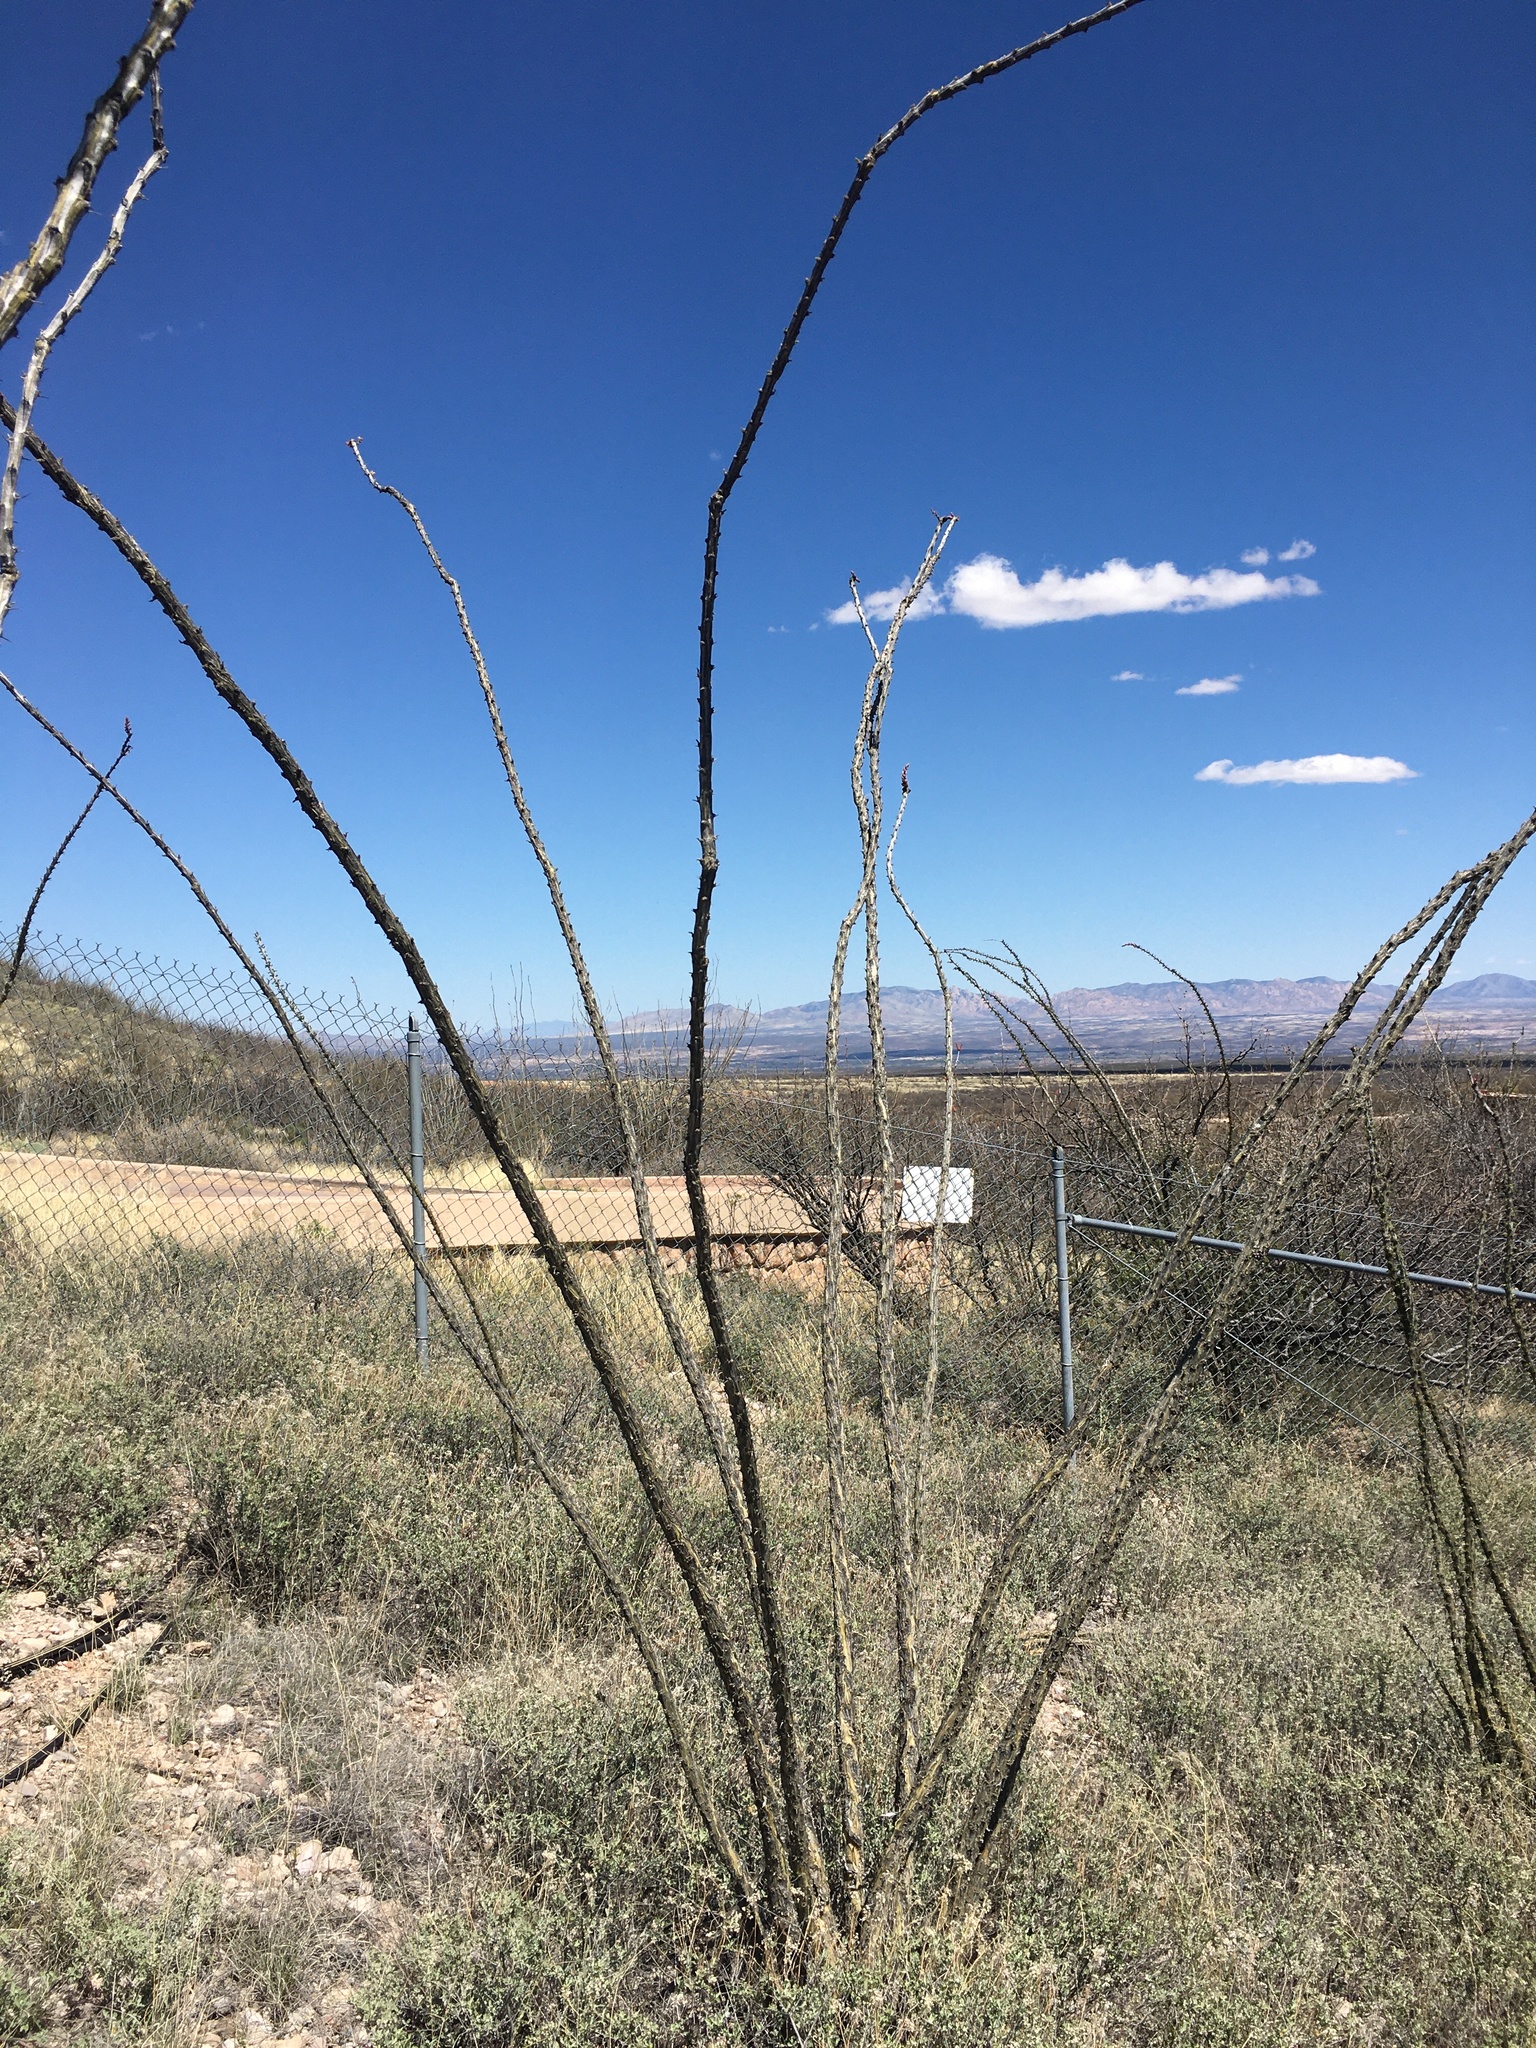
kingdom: Plantae
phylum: Tracheophyta
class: Magnoliopsida
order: Ericales
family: Fouquieriaceae
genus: Fouquieria
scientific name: Fouquieria splendens
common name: Vine-cactus
